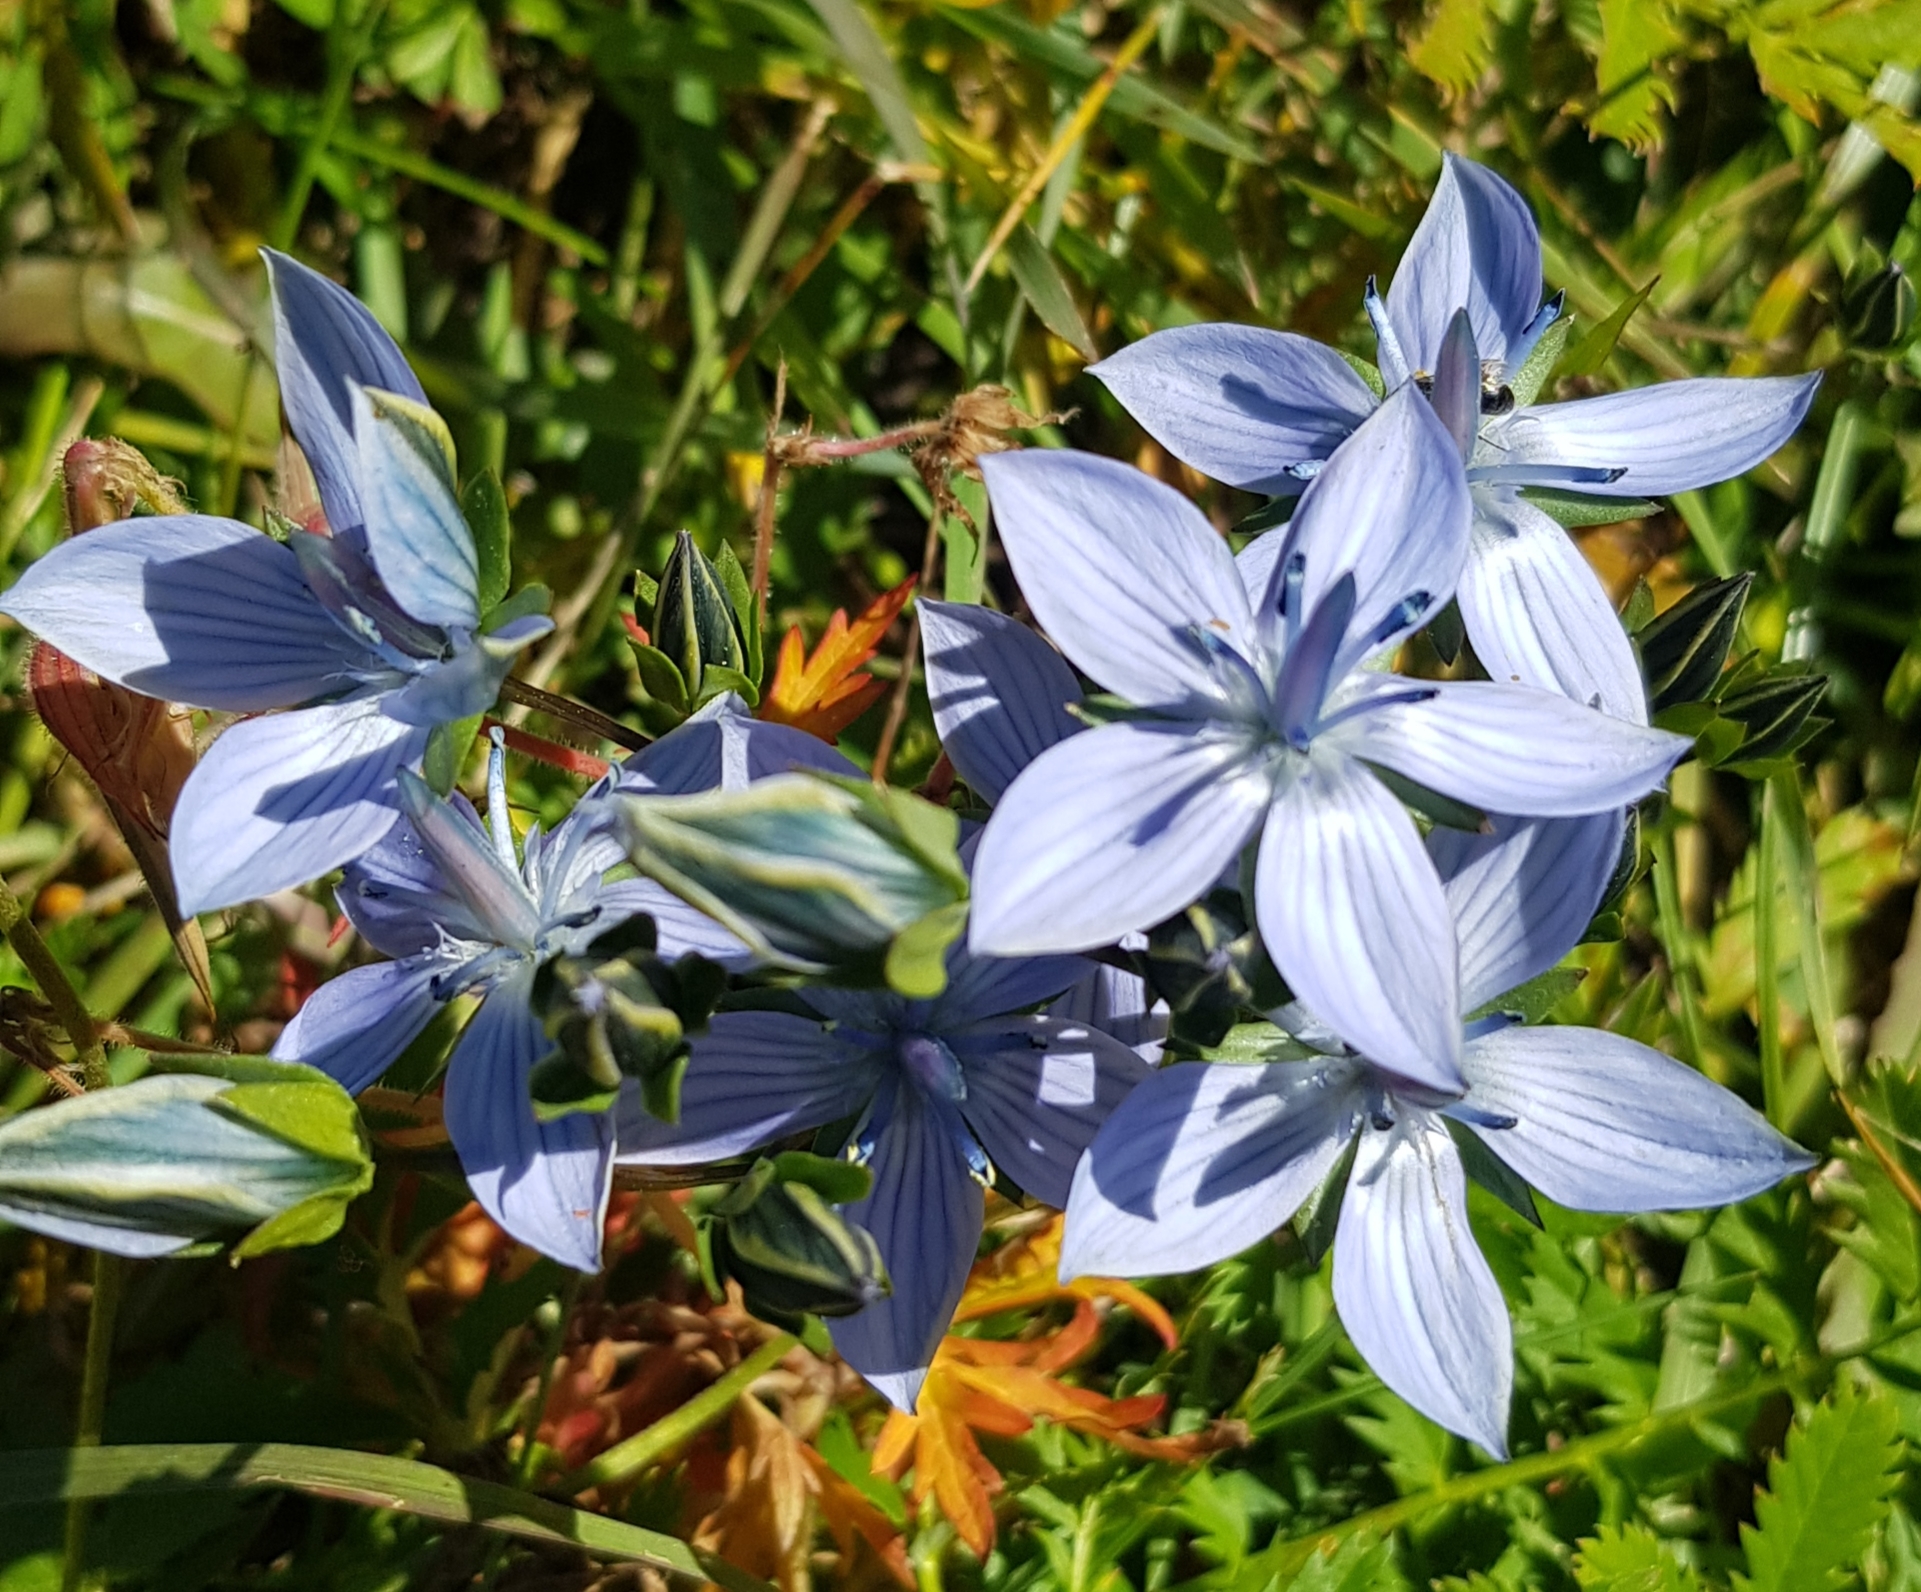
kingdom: Plantae
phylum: Tracheophyta
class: Magnoliopsida
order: Gentianales
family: Gentianaceae
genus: Lomatogonium
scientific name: Lomatogonium carinthiacum
